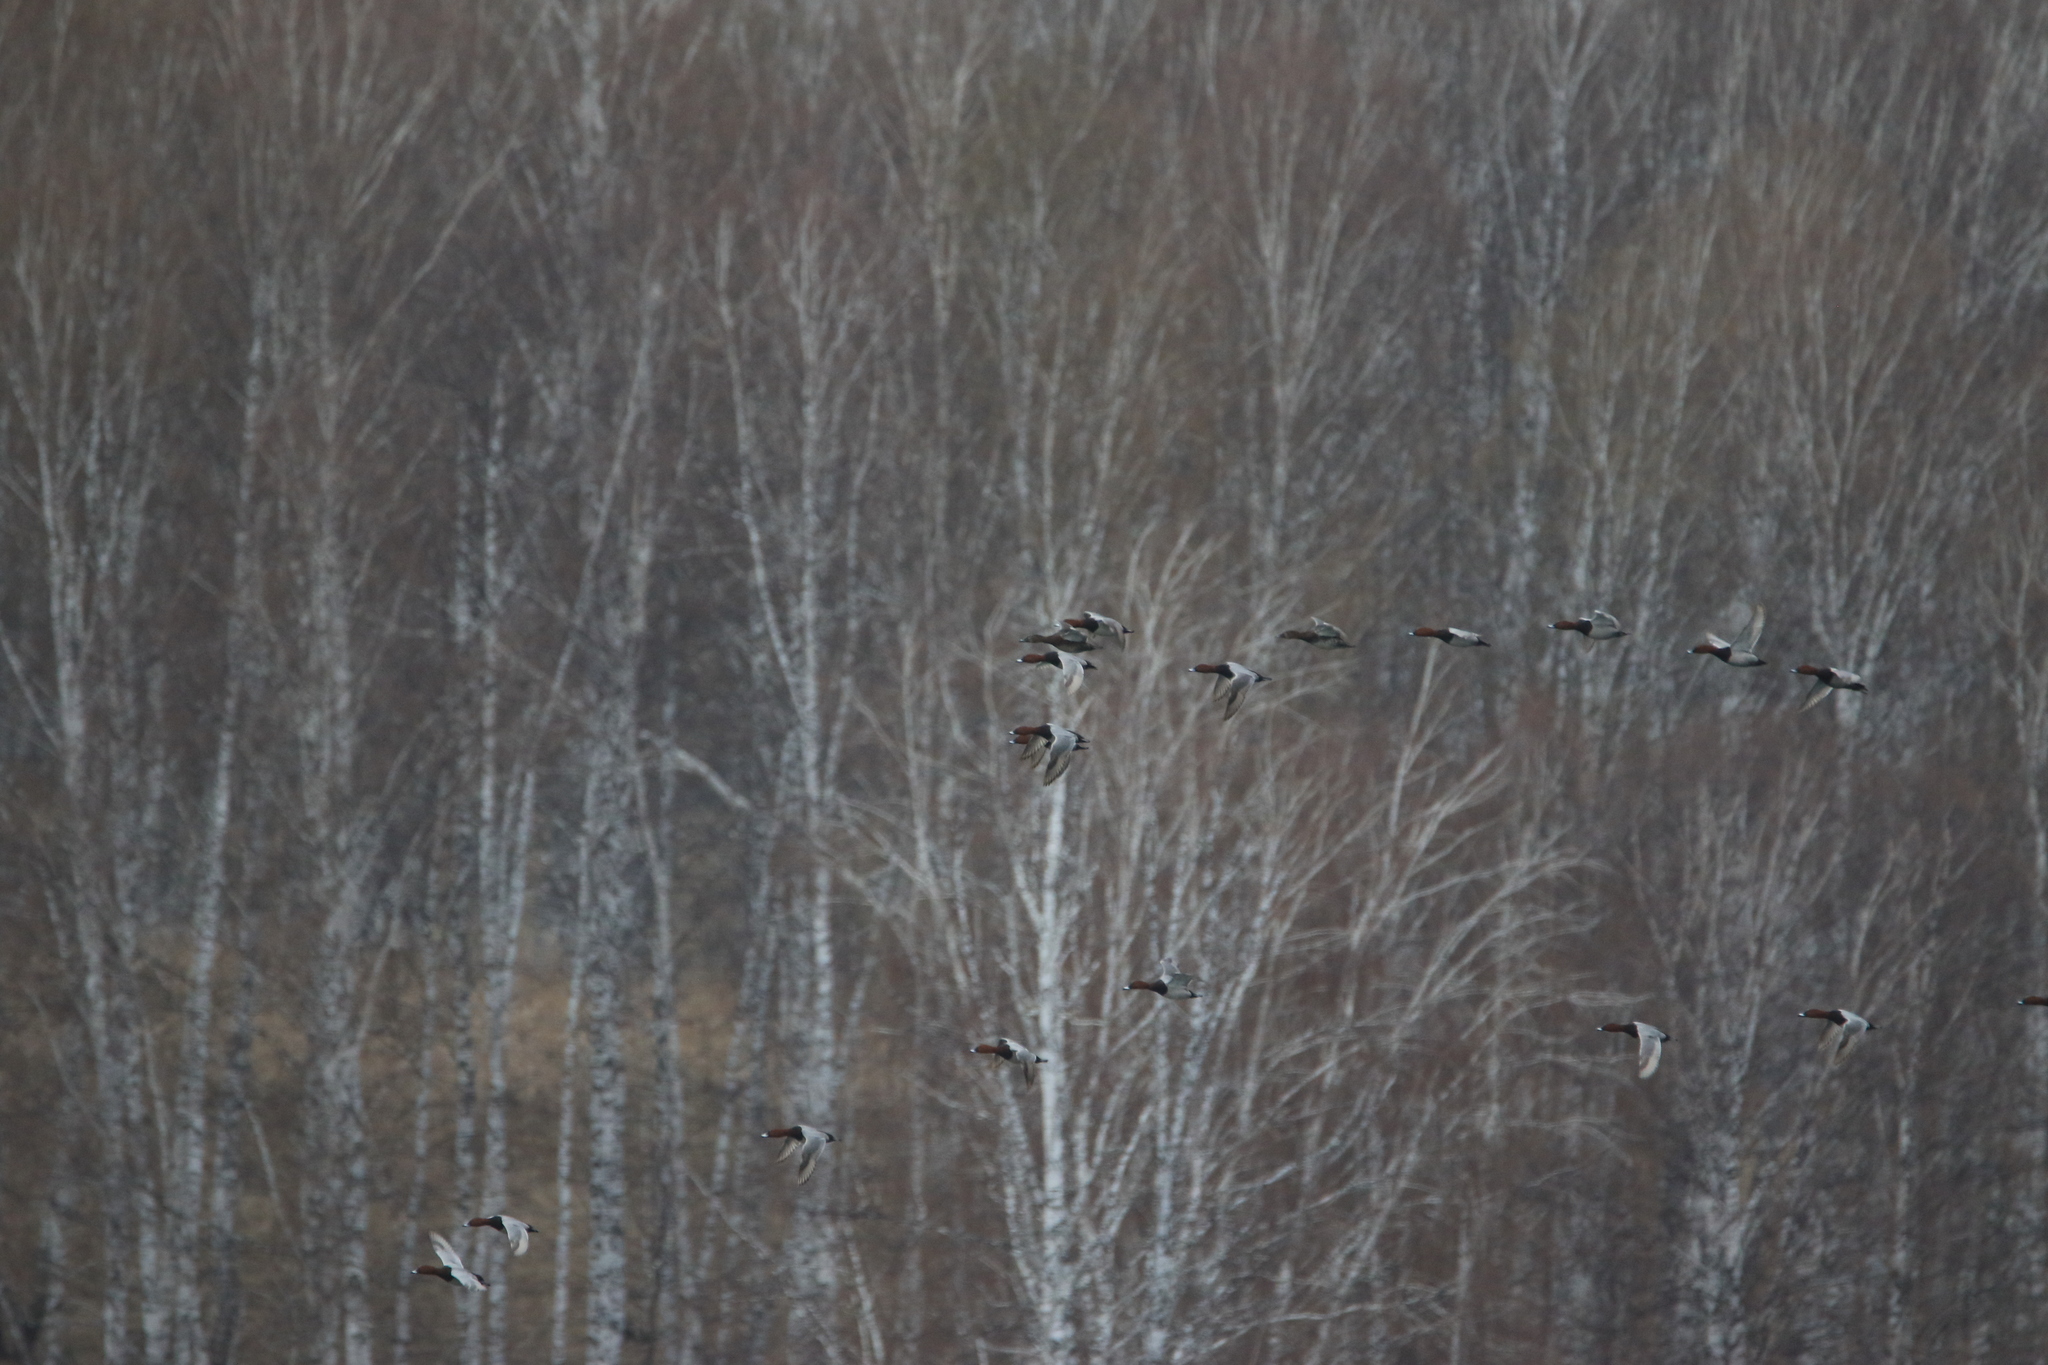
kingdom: Animalia
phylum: Chordata
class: Aves
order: Anseriformes
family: Anatidae
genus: Aythya
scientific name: Aythya ferina
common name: Common pochard
